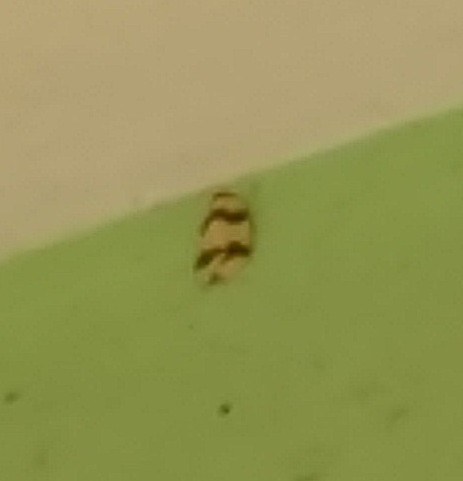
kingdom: Animalia
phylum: Arthropoda
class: Insecta
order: Lepidoptera
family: Erebidae
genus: Padenia
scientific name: Padenia transversa
